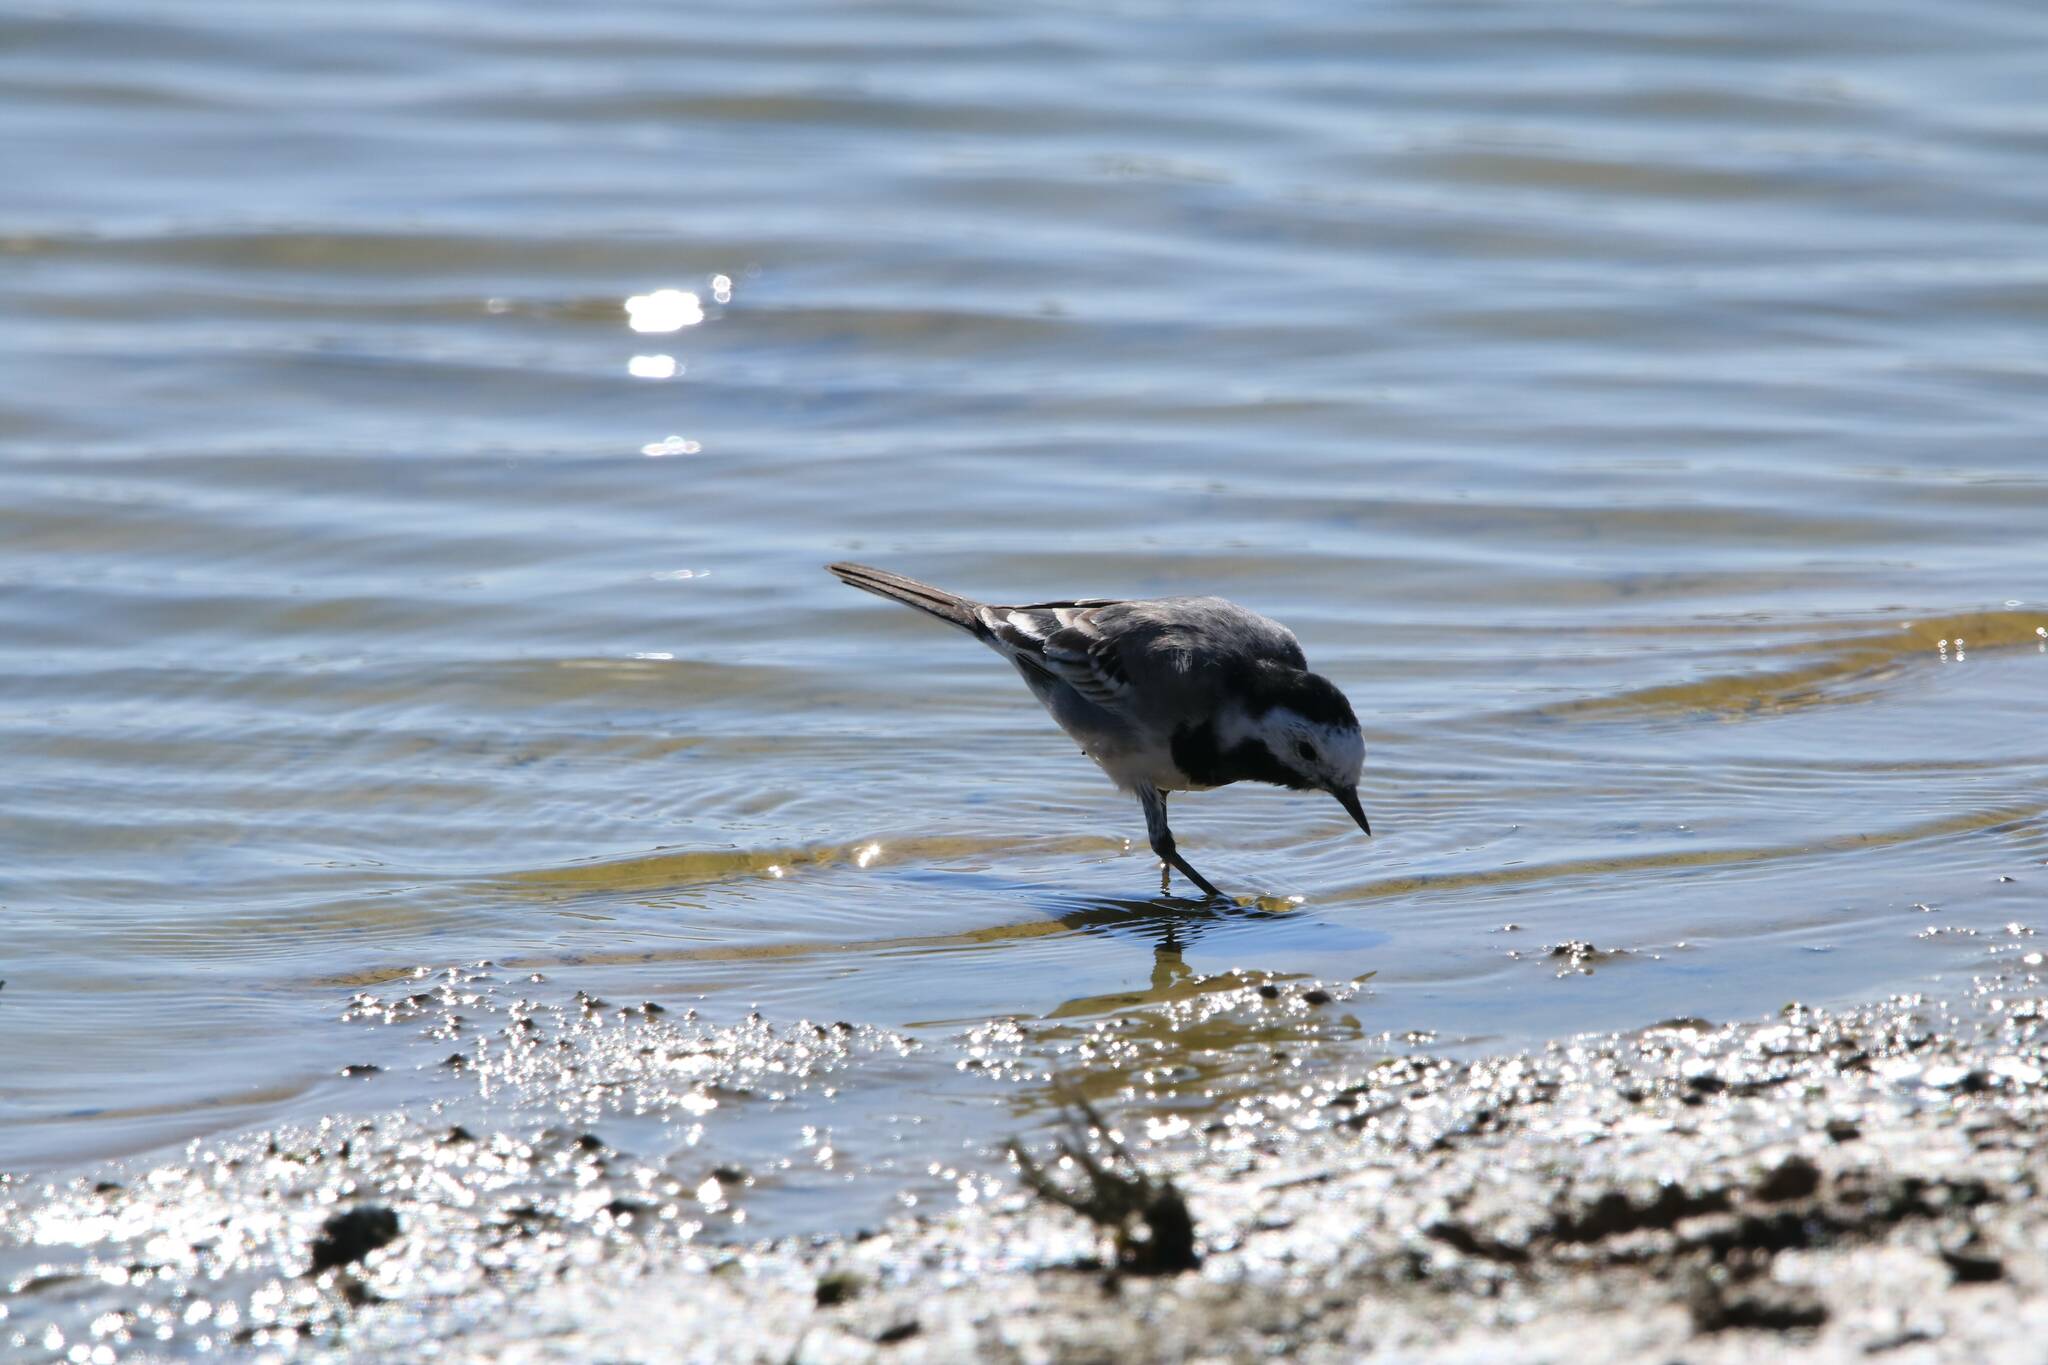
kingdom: Animalia
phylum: Chordata
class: Aves
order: Passeriformes
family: Motacillidae
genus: Motacilla
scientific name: Motacilla alba
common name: White wagtail
